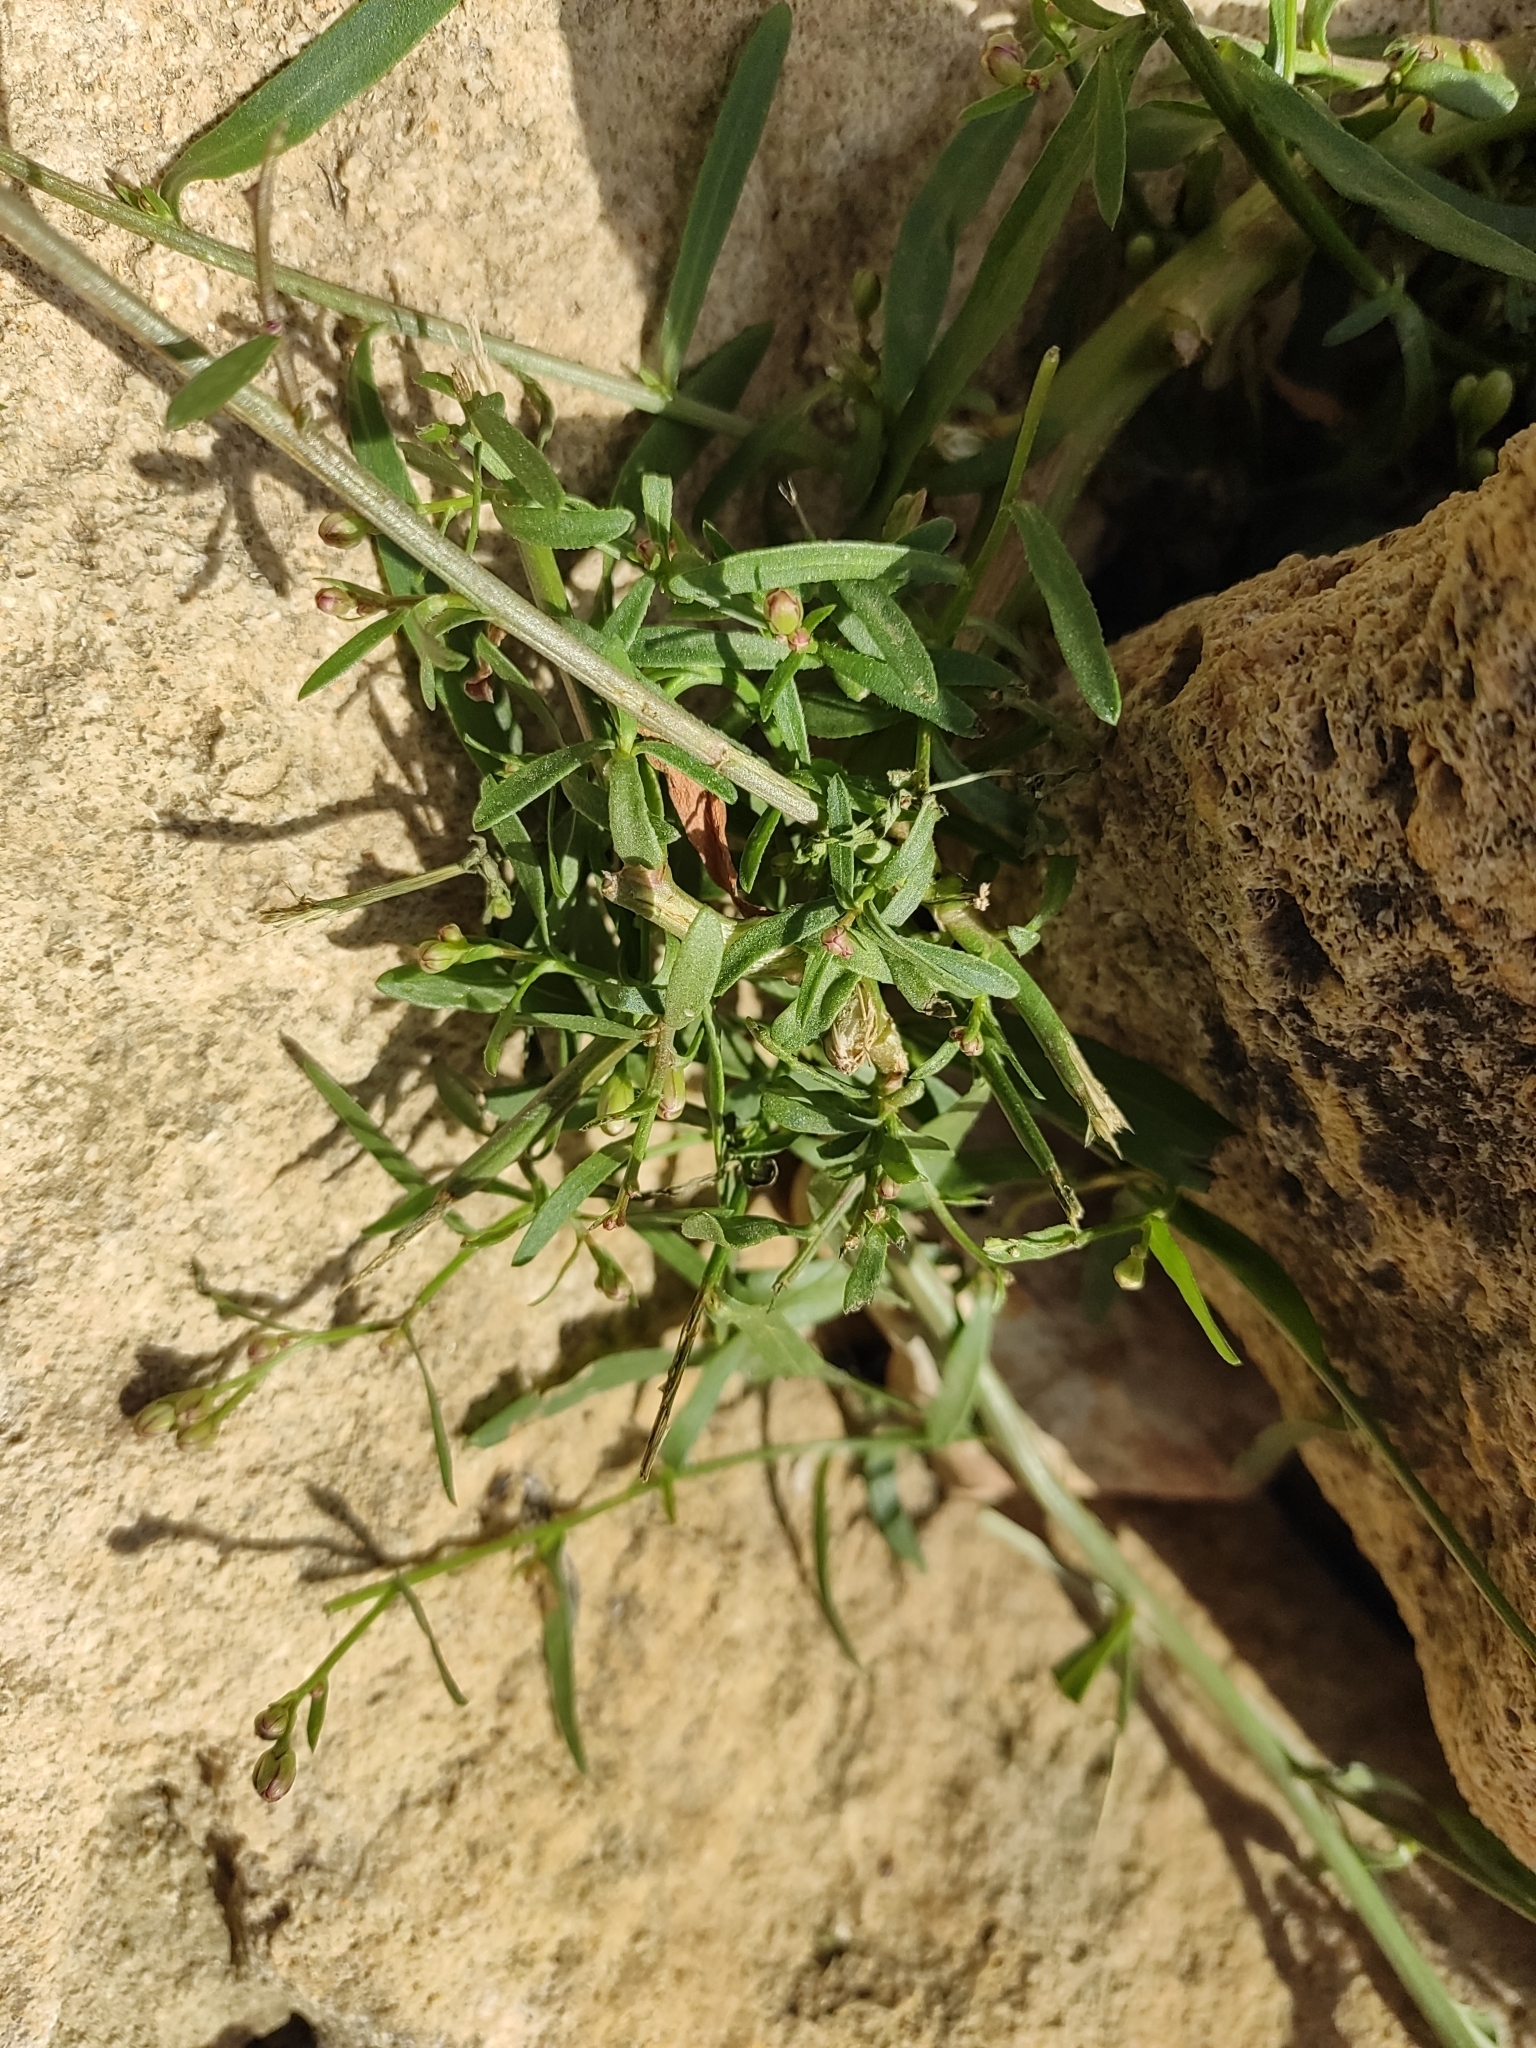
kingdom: Plantae
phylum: Tracheophyta
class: Magnoliopsida
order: Asterales
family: Asteraceae
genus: Tripolium
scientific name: Tripolium pannonicum
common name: Sea aster
